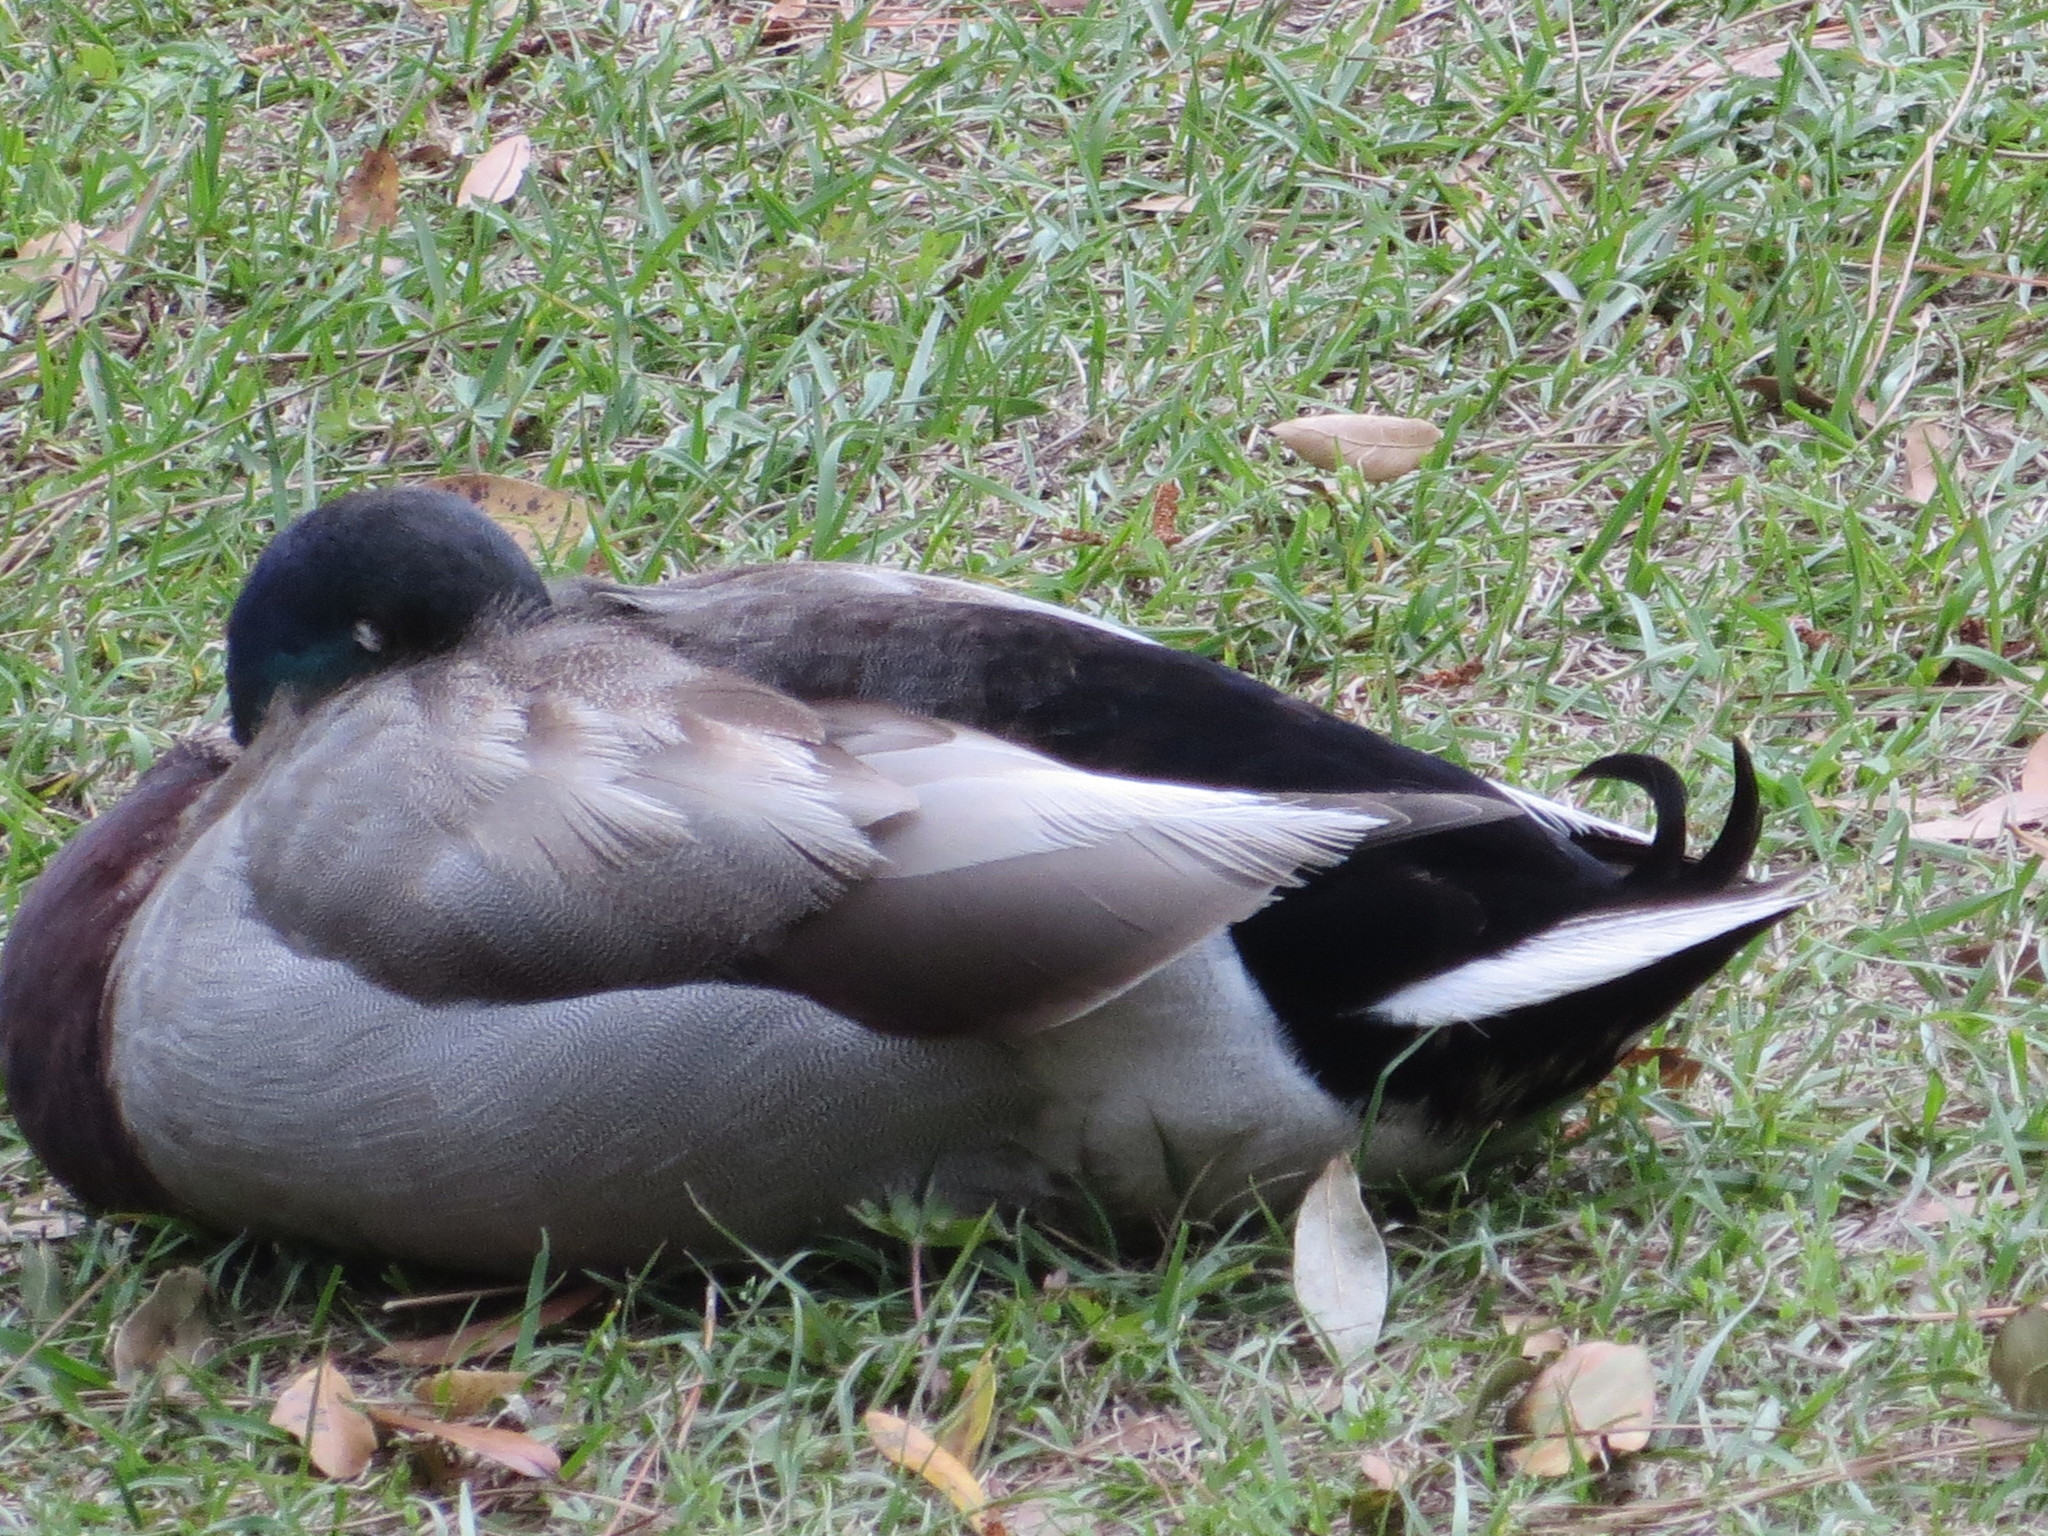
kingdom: Animalia
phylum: Chordata
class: Aves
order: Anseriformes
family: Anatidae
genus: Anas
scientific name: Anas platyrhynchos
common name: Mallard
